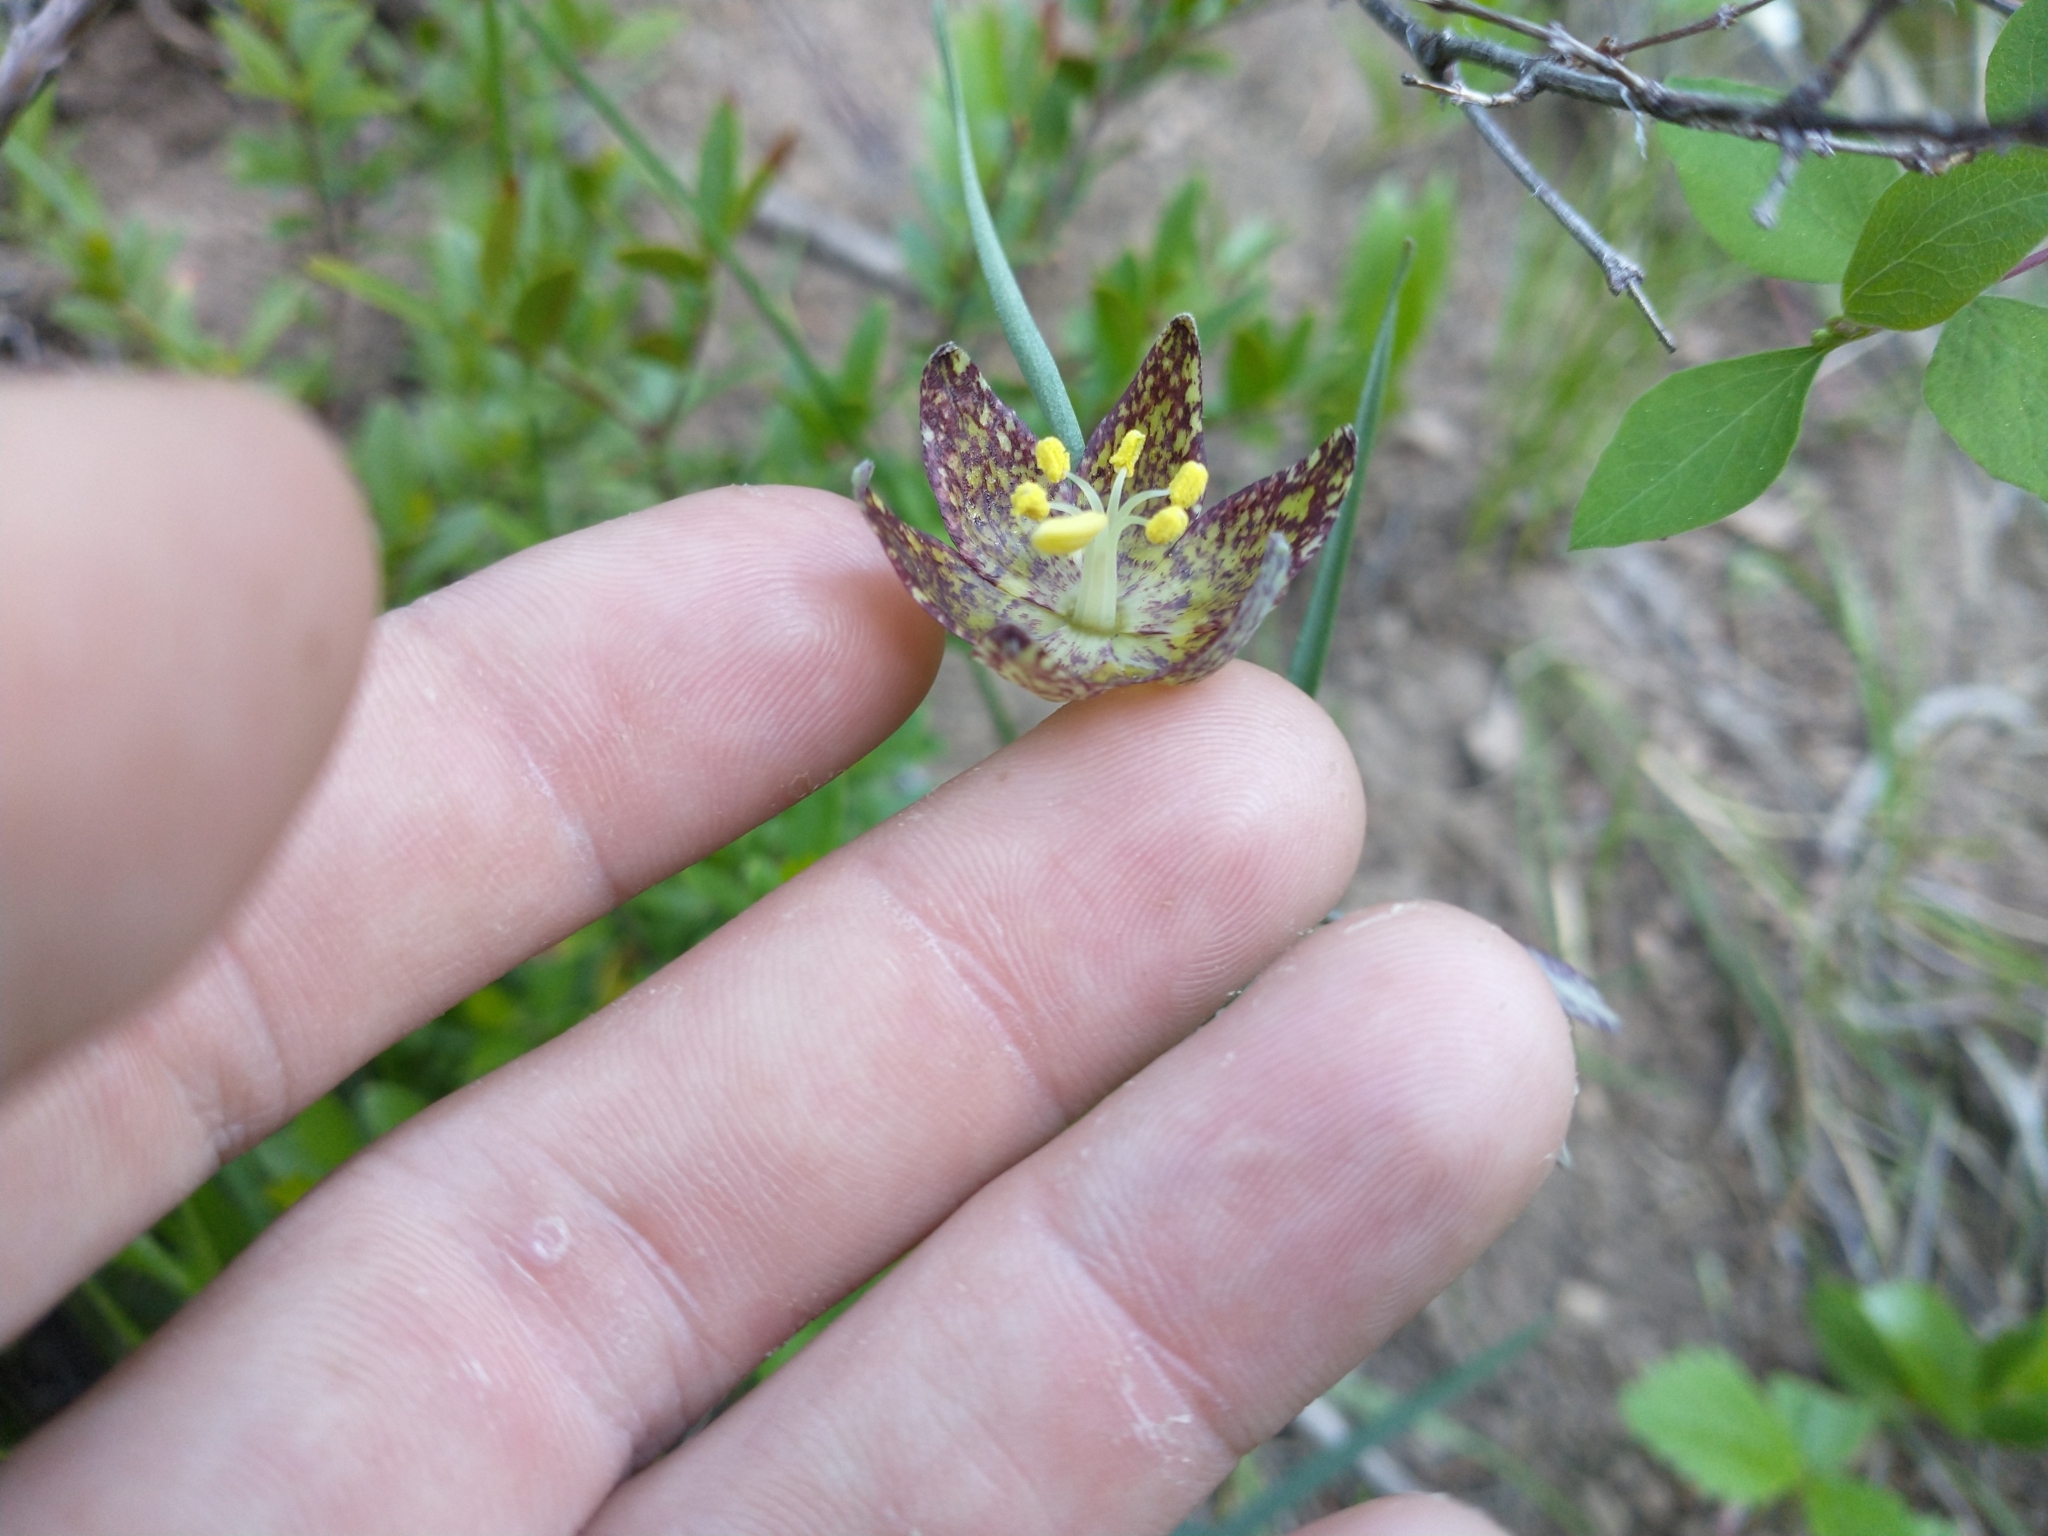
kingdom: Plantae
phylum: Tracheophyta
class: Liliopsida
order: Liliales
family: Liliaceae
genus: Fritillaria
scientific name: Fritillaria atropurpurea
